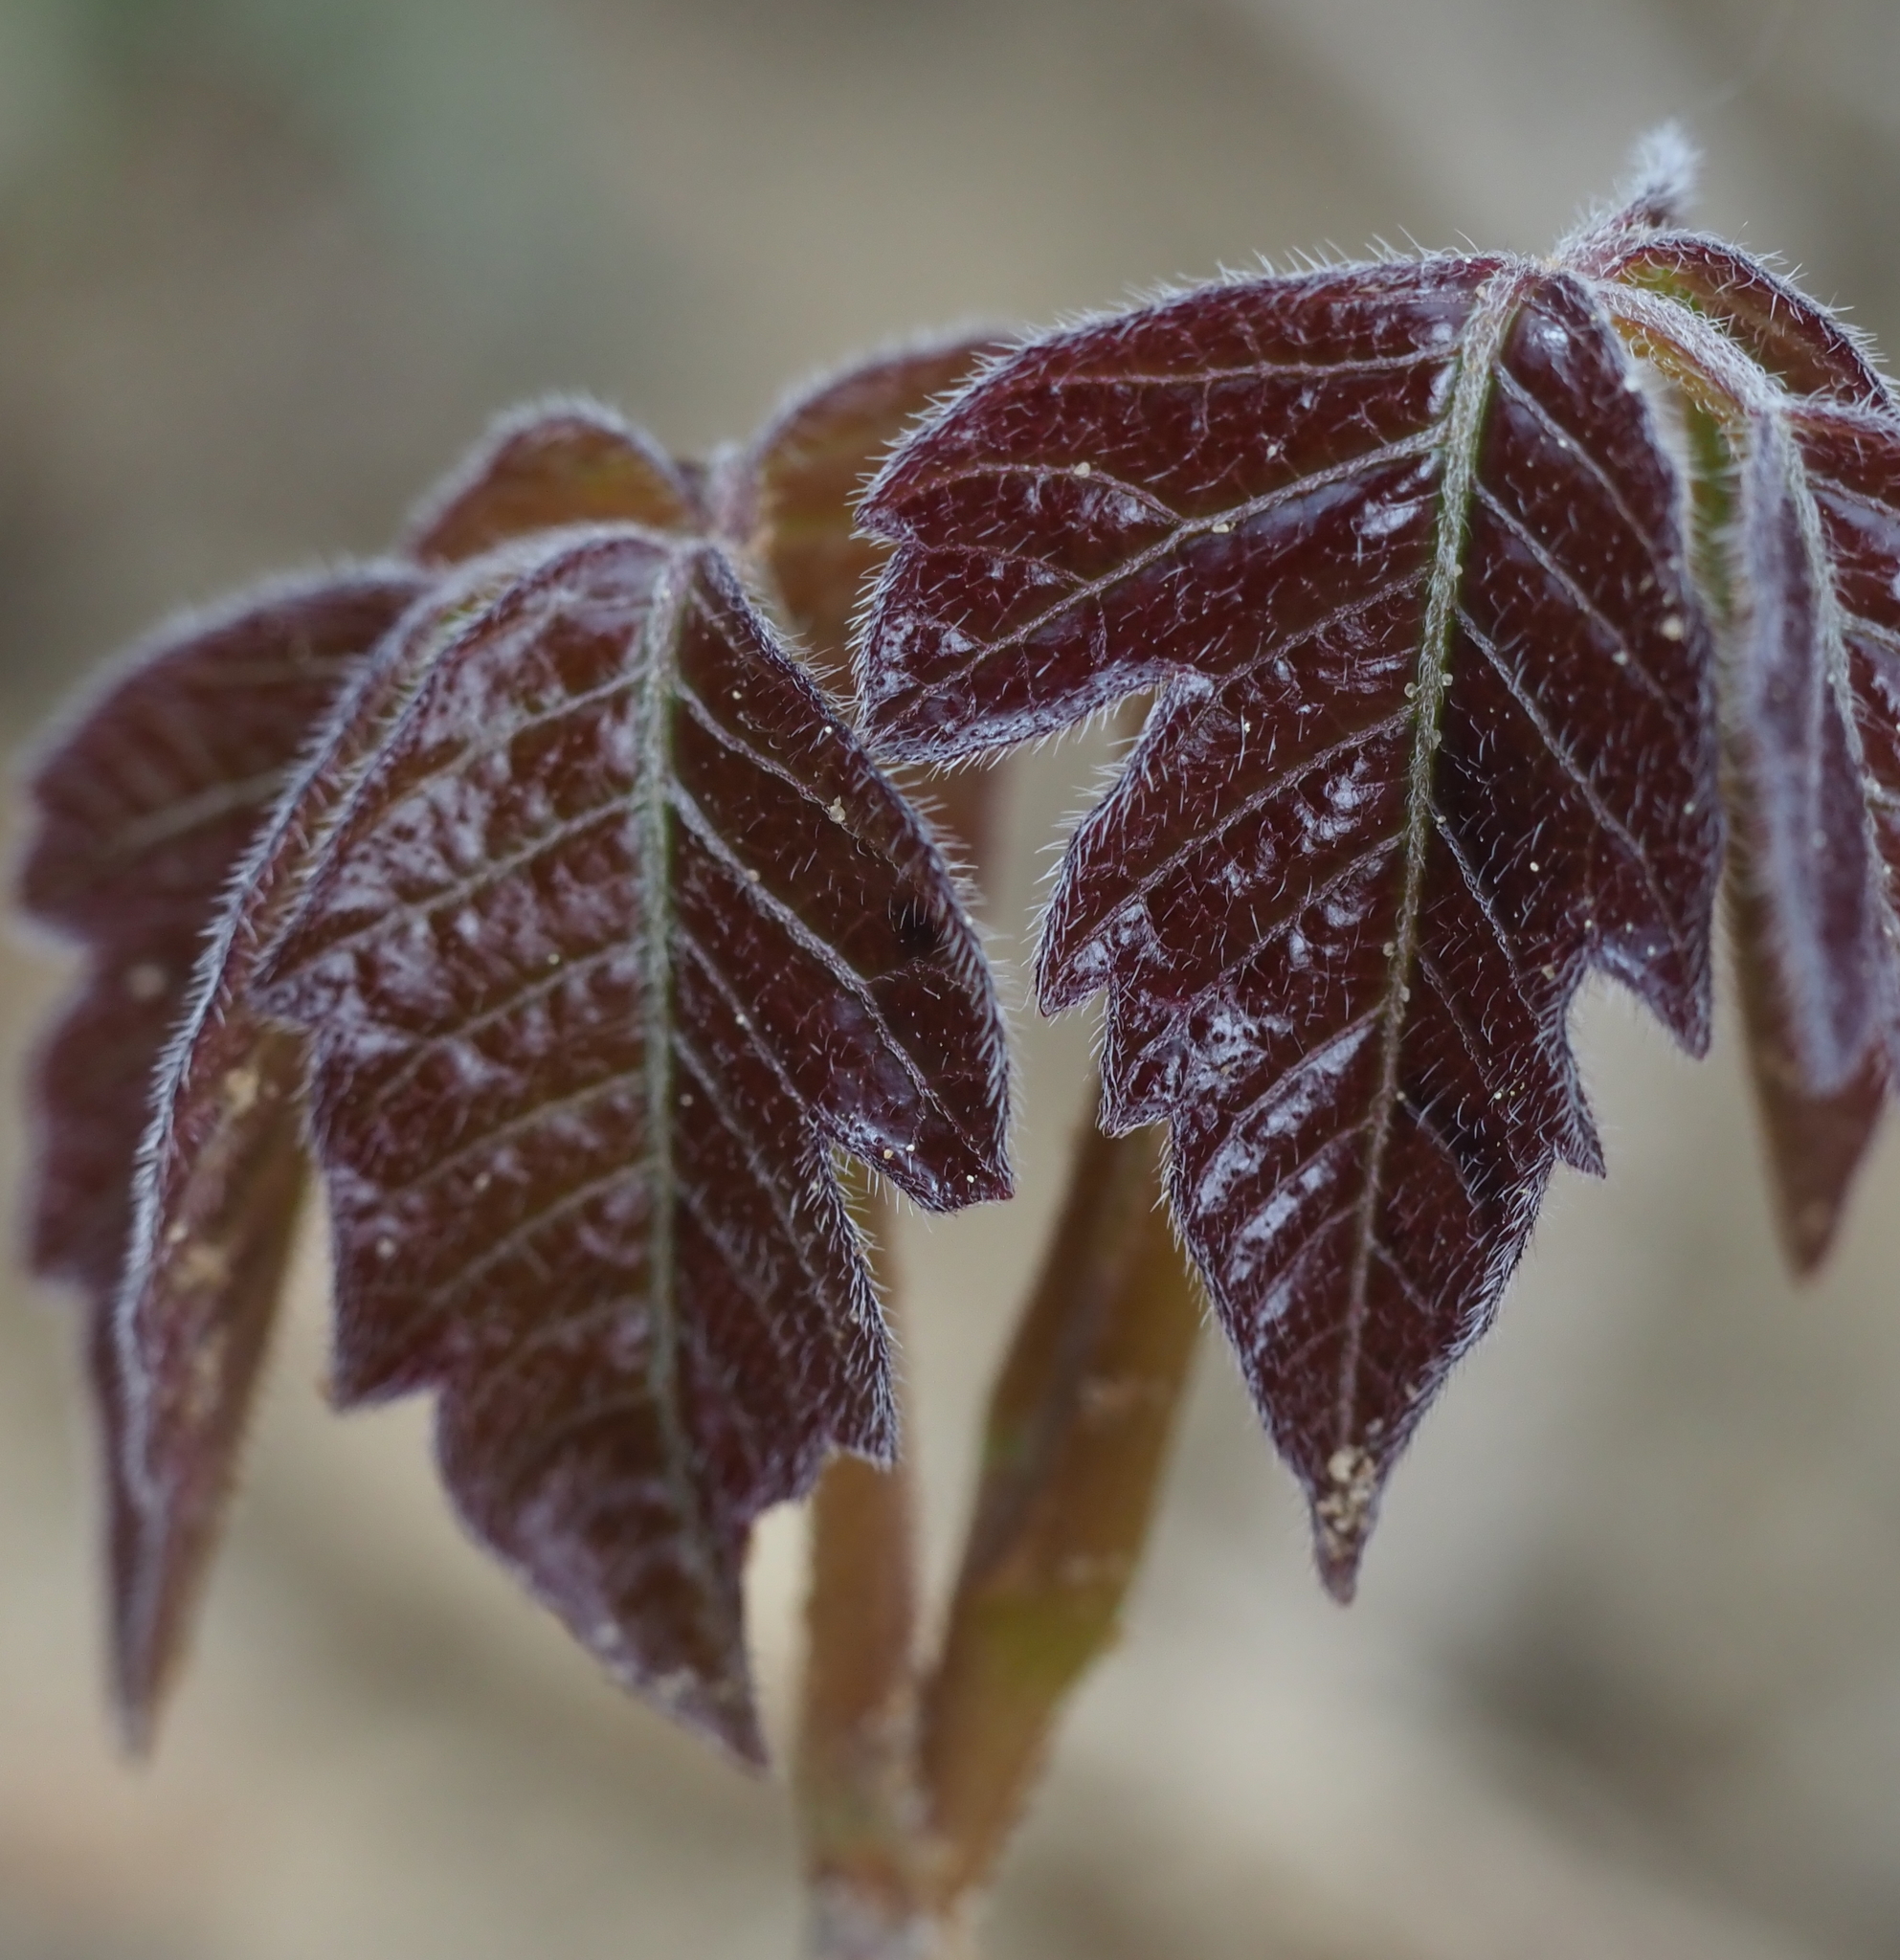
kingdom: Plantae
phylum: Tracheophyta
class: Magnoliopsida
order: Sapindales
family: Anacardiaceae
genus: Toxicodendron
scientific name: Toxicodendron radicans
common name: Poison ivy
